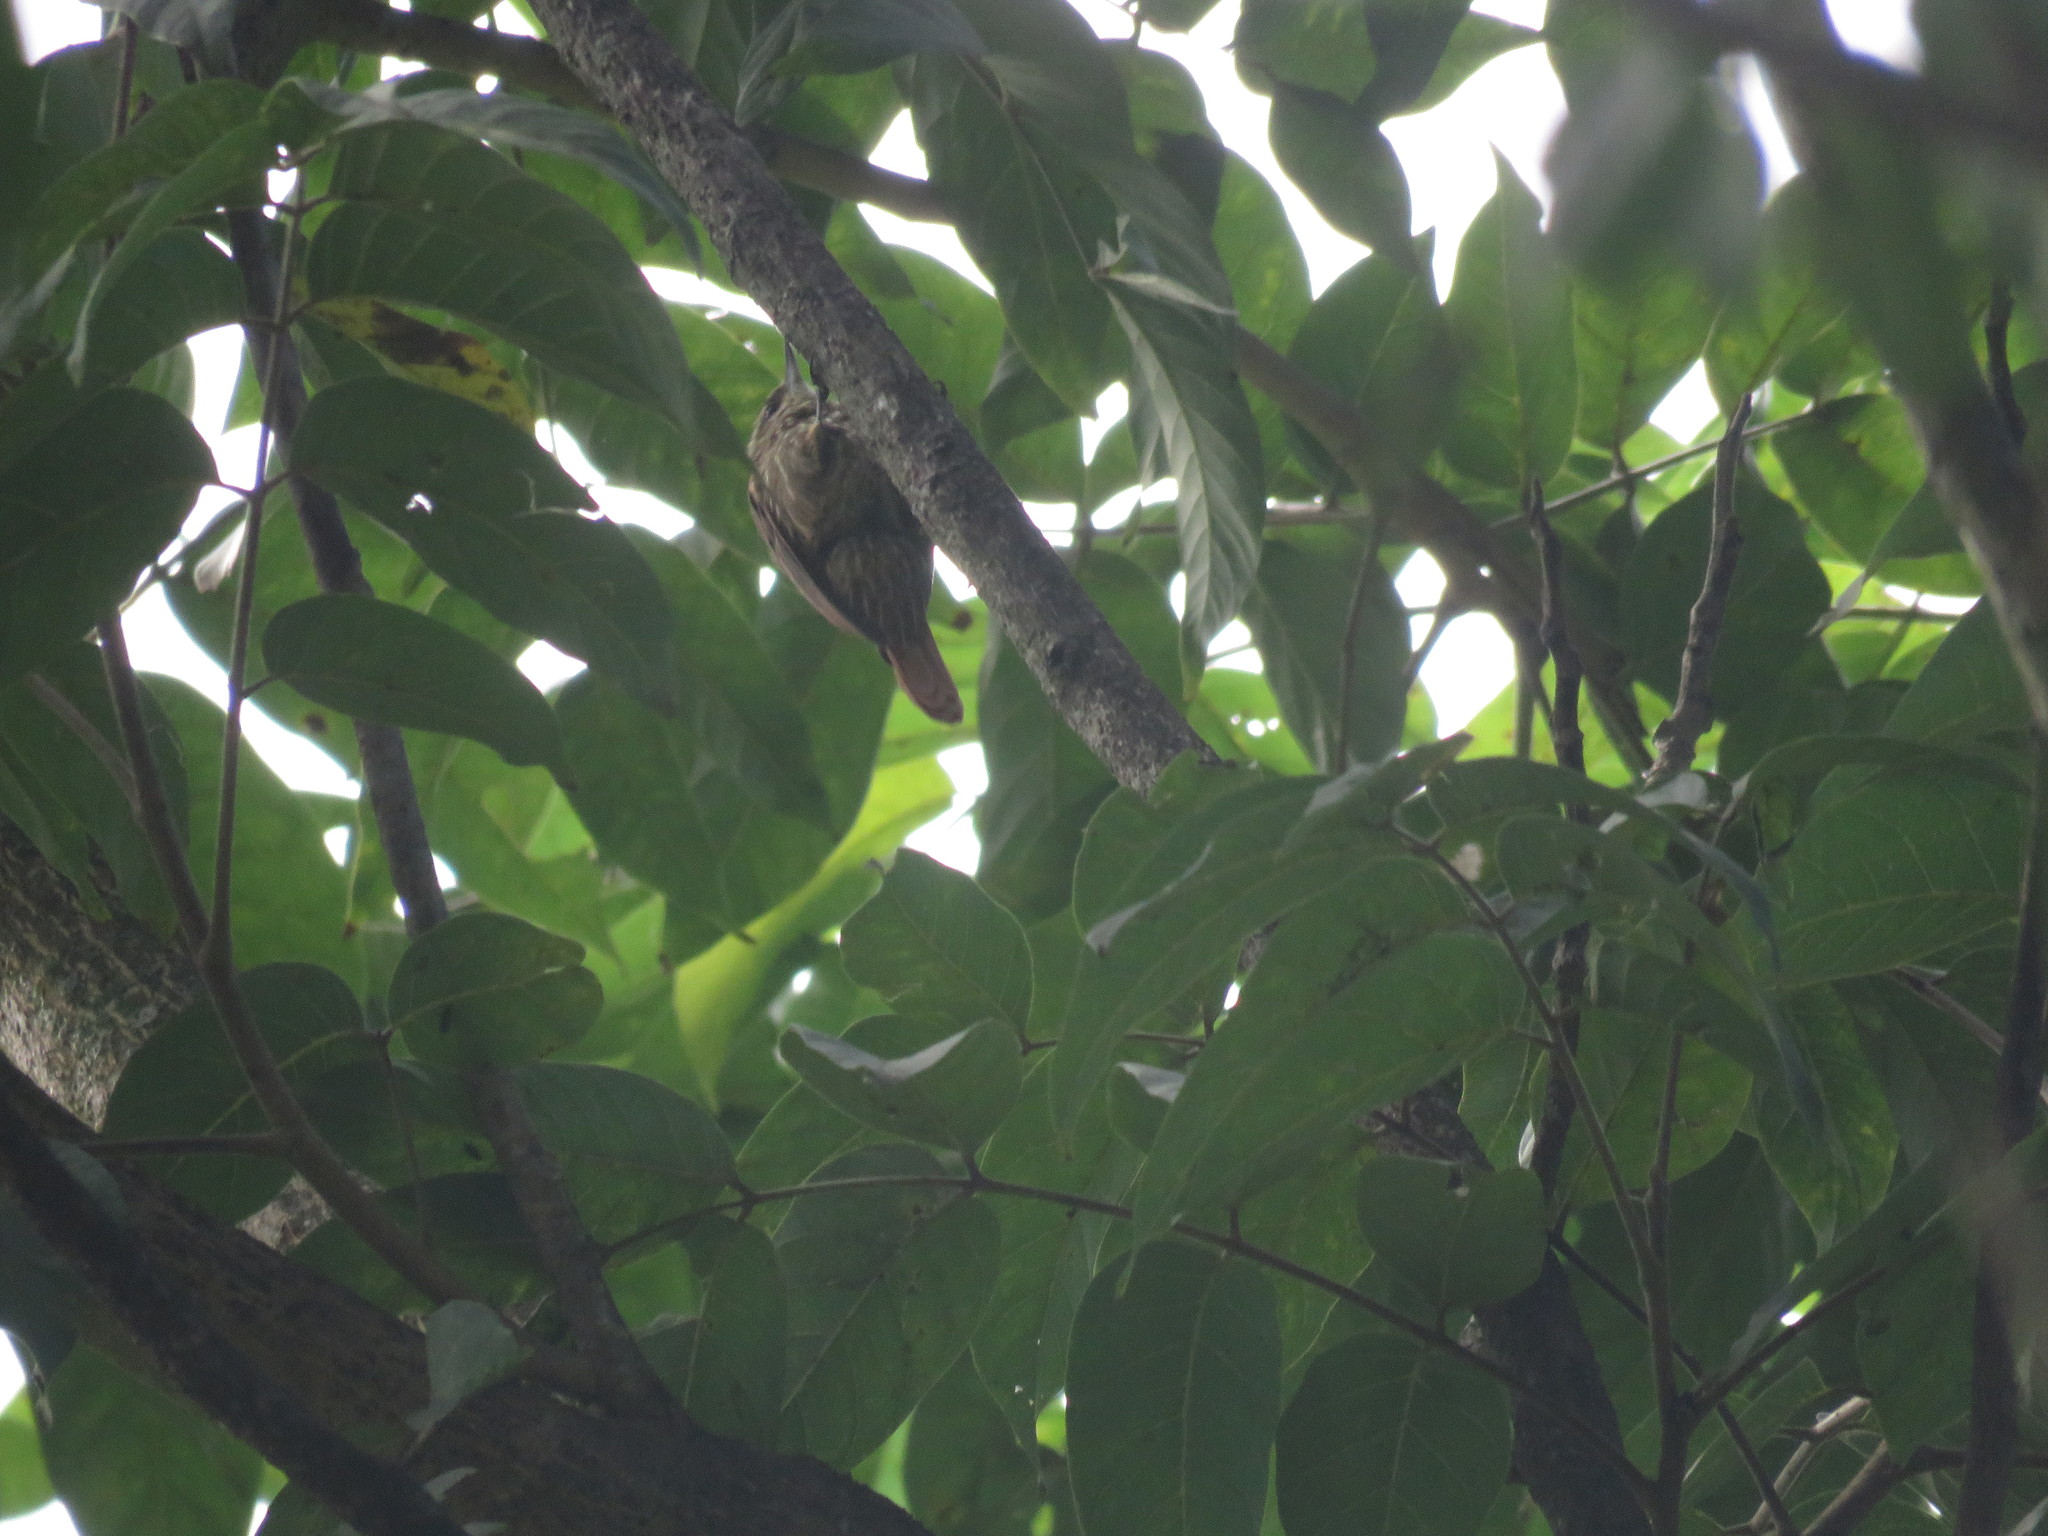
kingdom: Animalia
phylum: Chordata
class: Aves
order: Passeriformes
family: Furnariidae
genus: Xenops
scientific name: Xenops rutilans
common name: Streaked xenops
